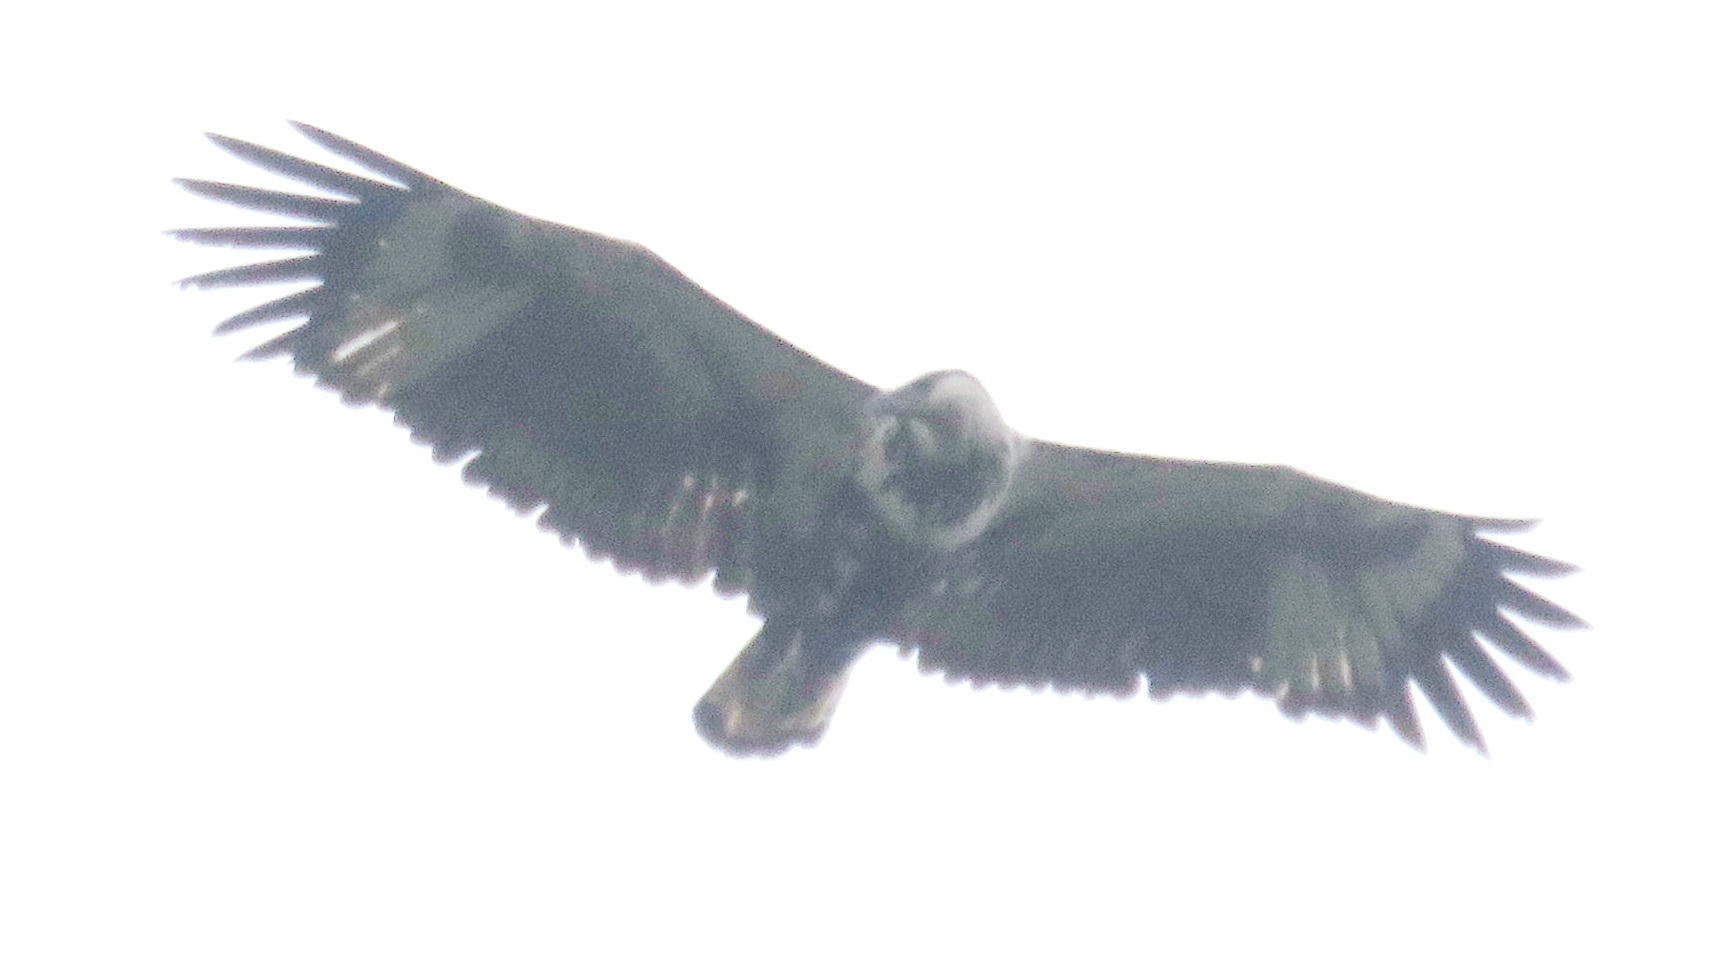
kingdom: Animalia
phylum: Chordata
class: Aves
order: Accipitriformes
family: Accipitridae
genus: Haliaeetus
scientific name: Haliaeetus vocifer
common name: African fish eagle
